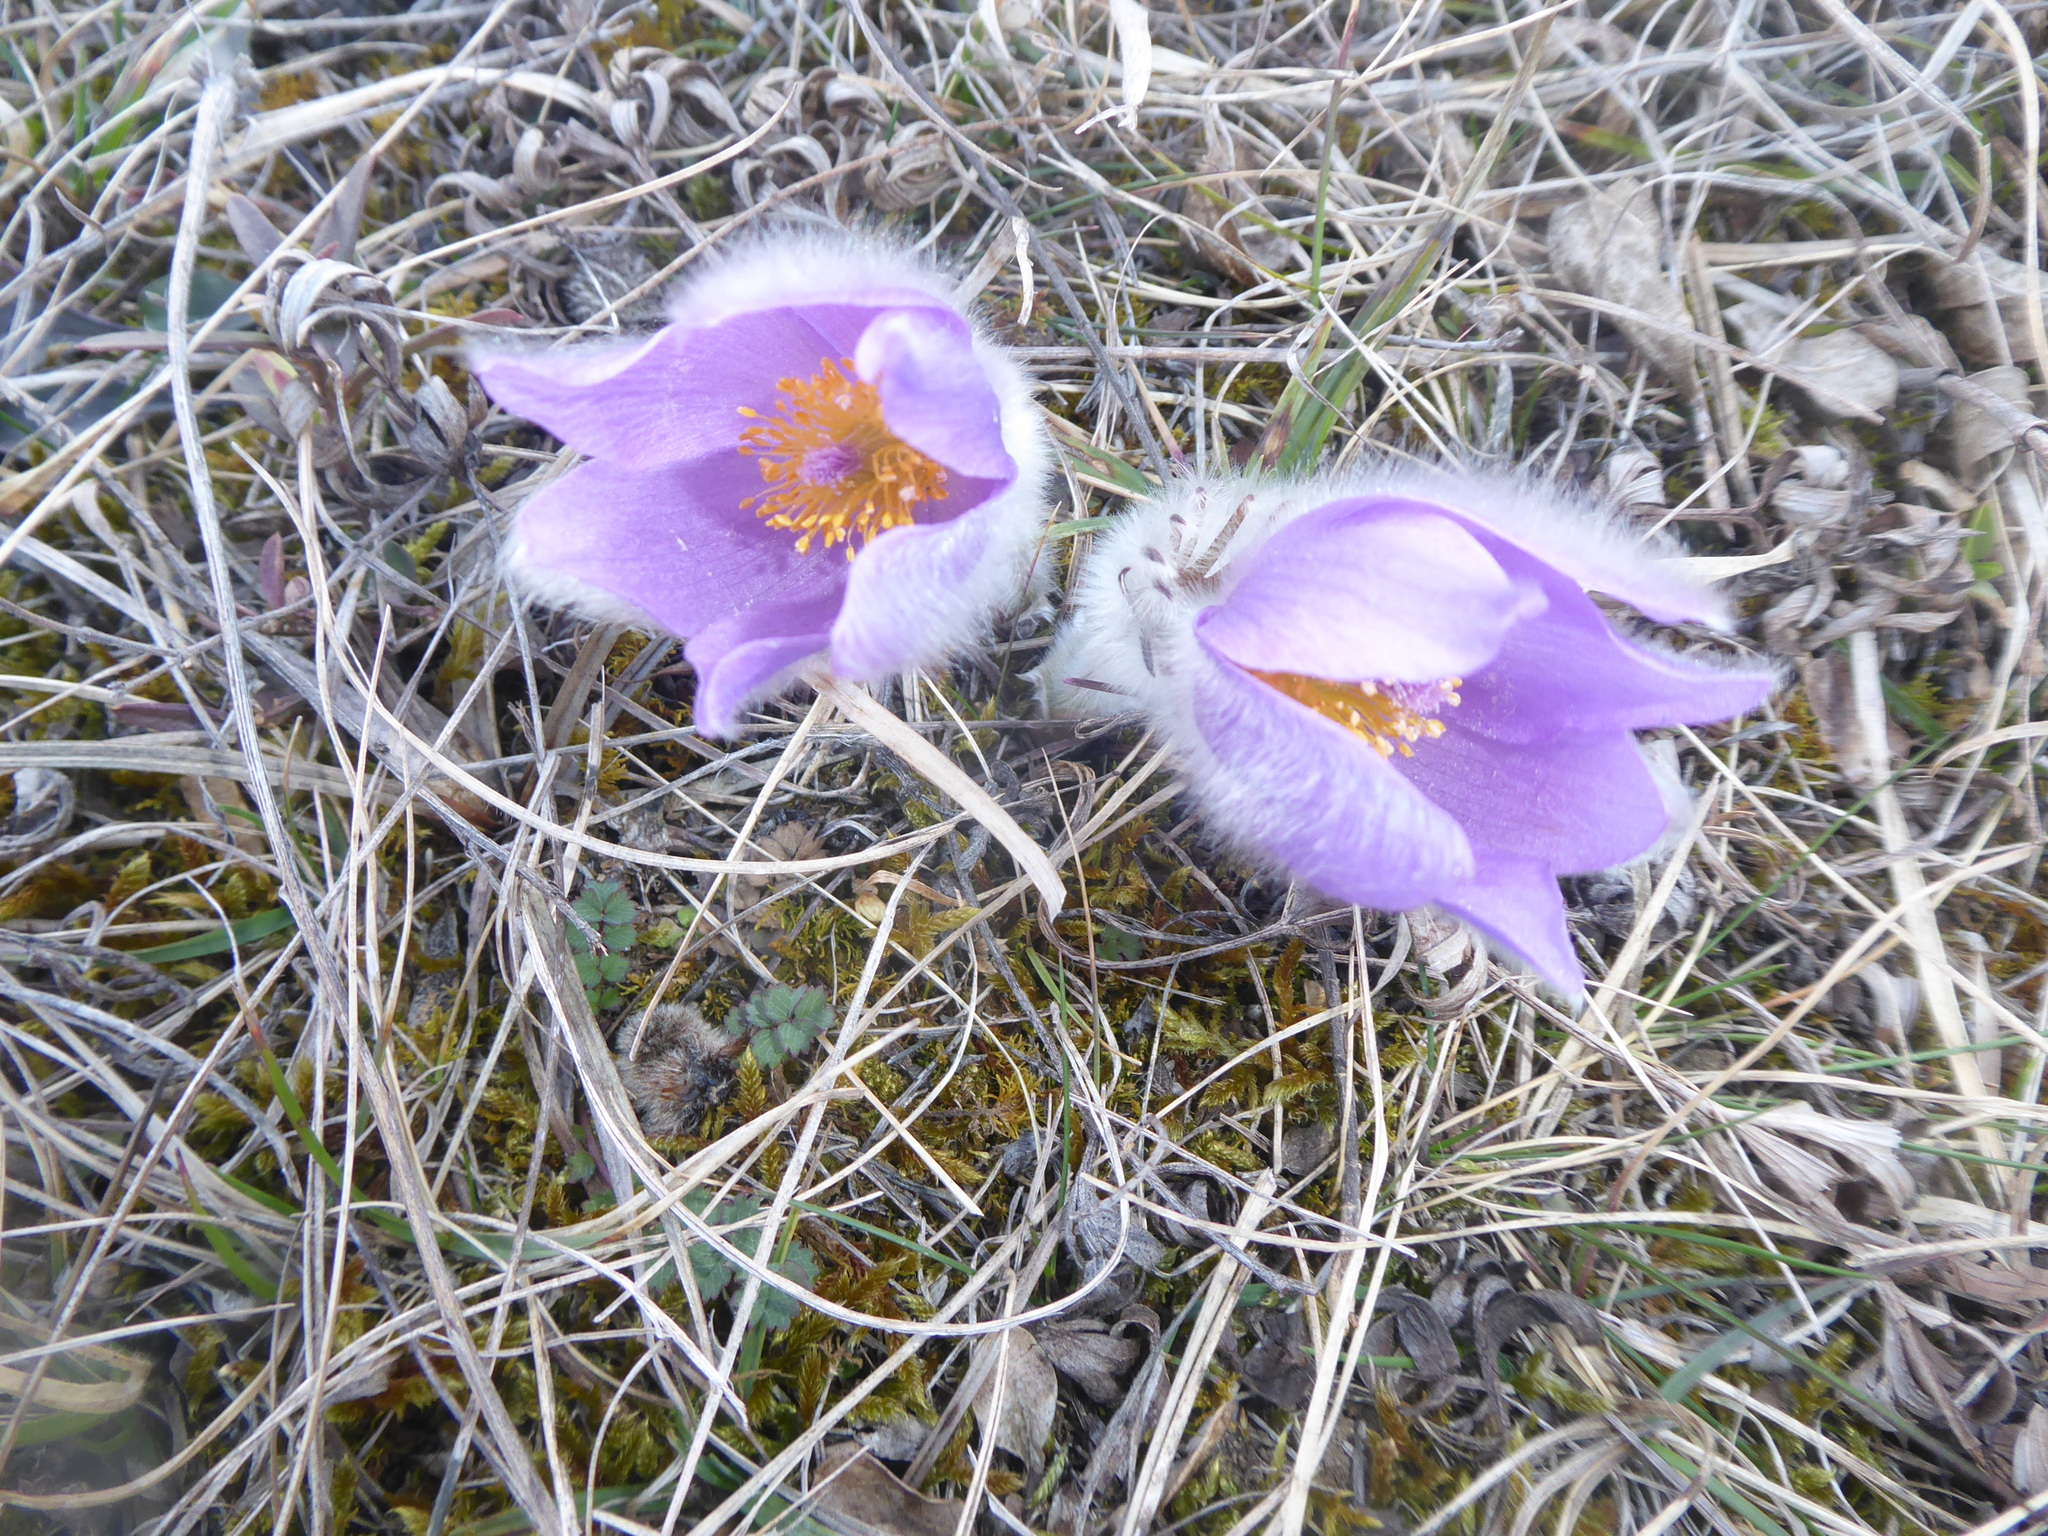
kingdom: Plantae
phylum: Tracheophyta
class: Magnoliopsida
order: Ranunculales
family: Ranunculaceae
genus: Pulsatilla
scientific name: Pulsatilla grandis
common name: Greater pasque flower
